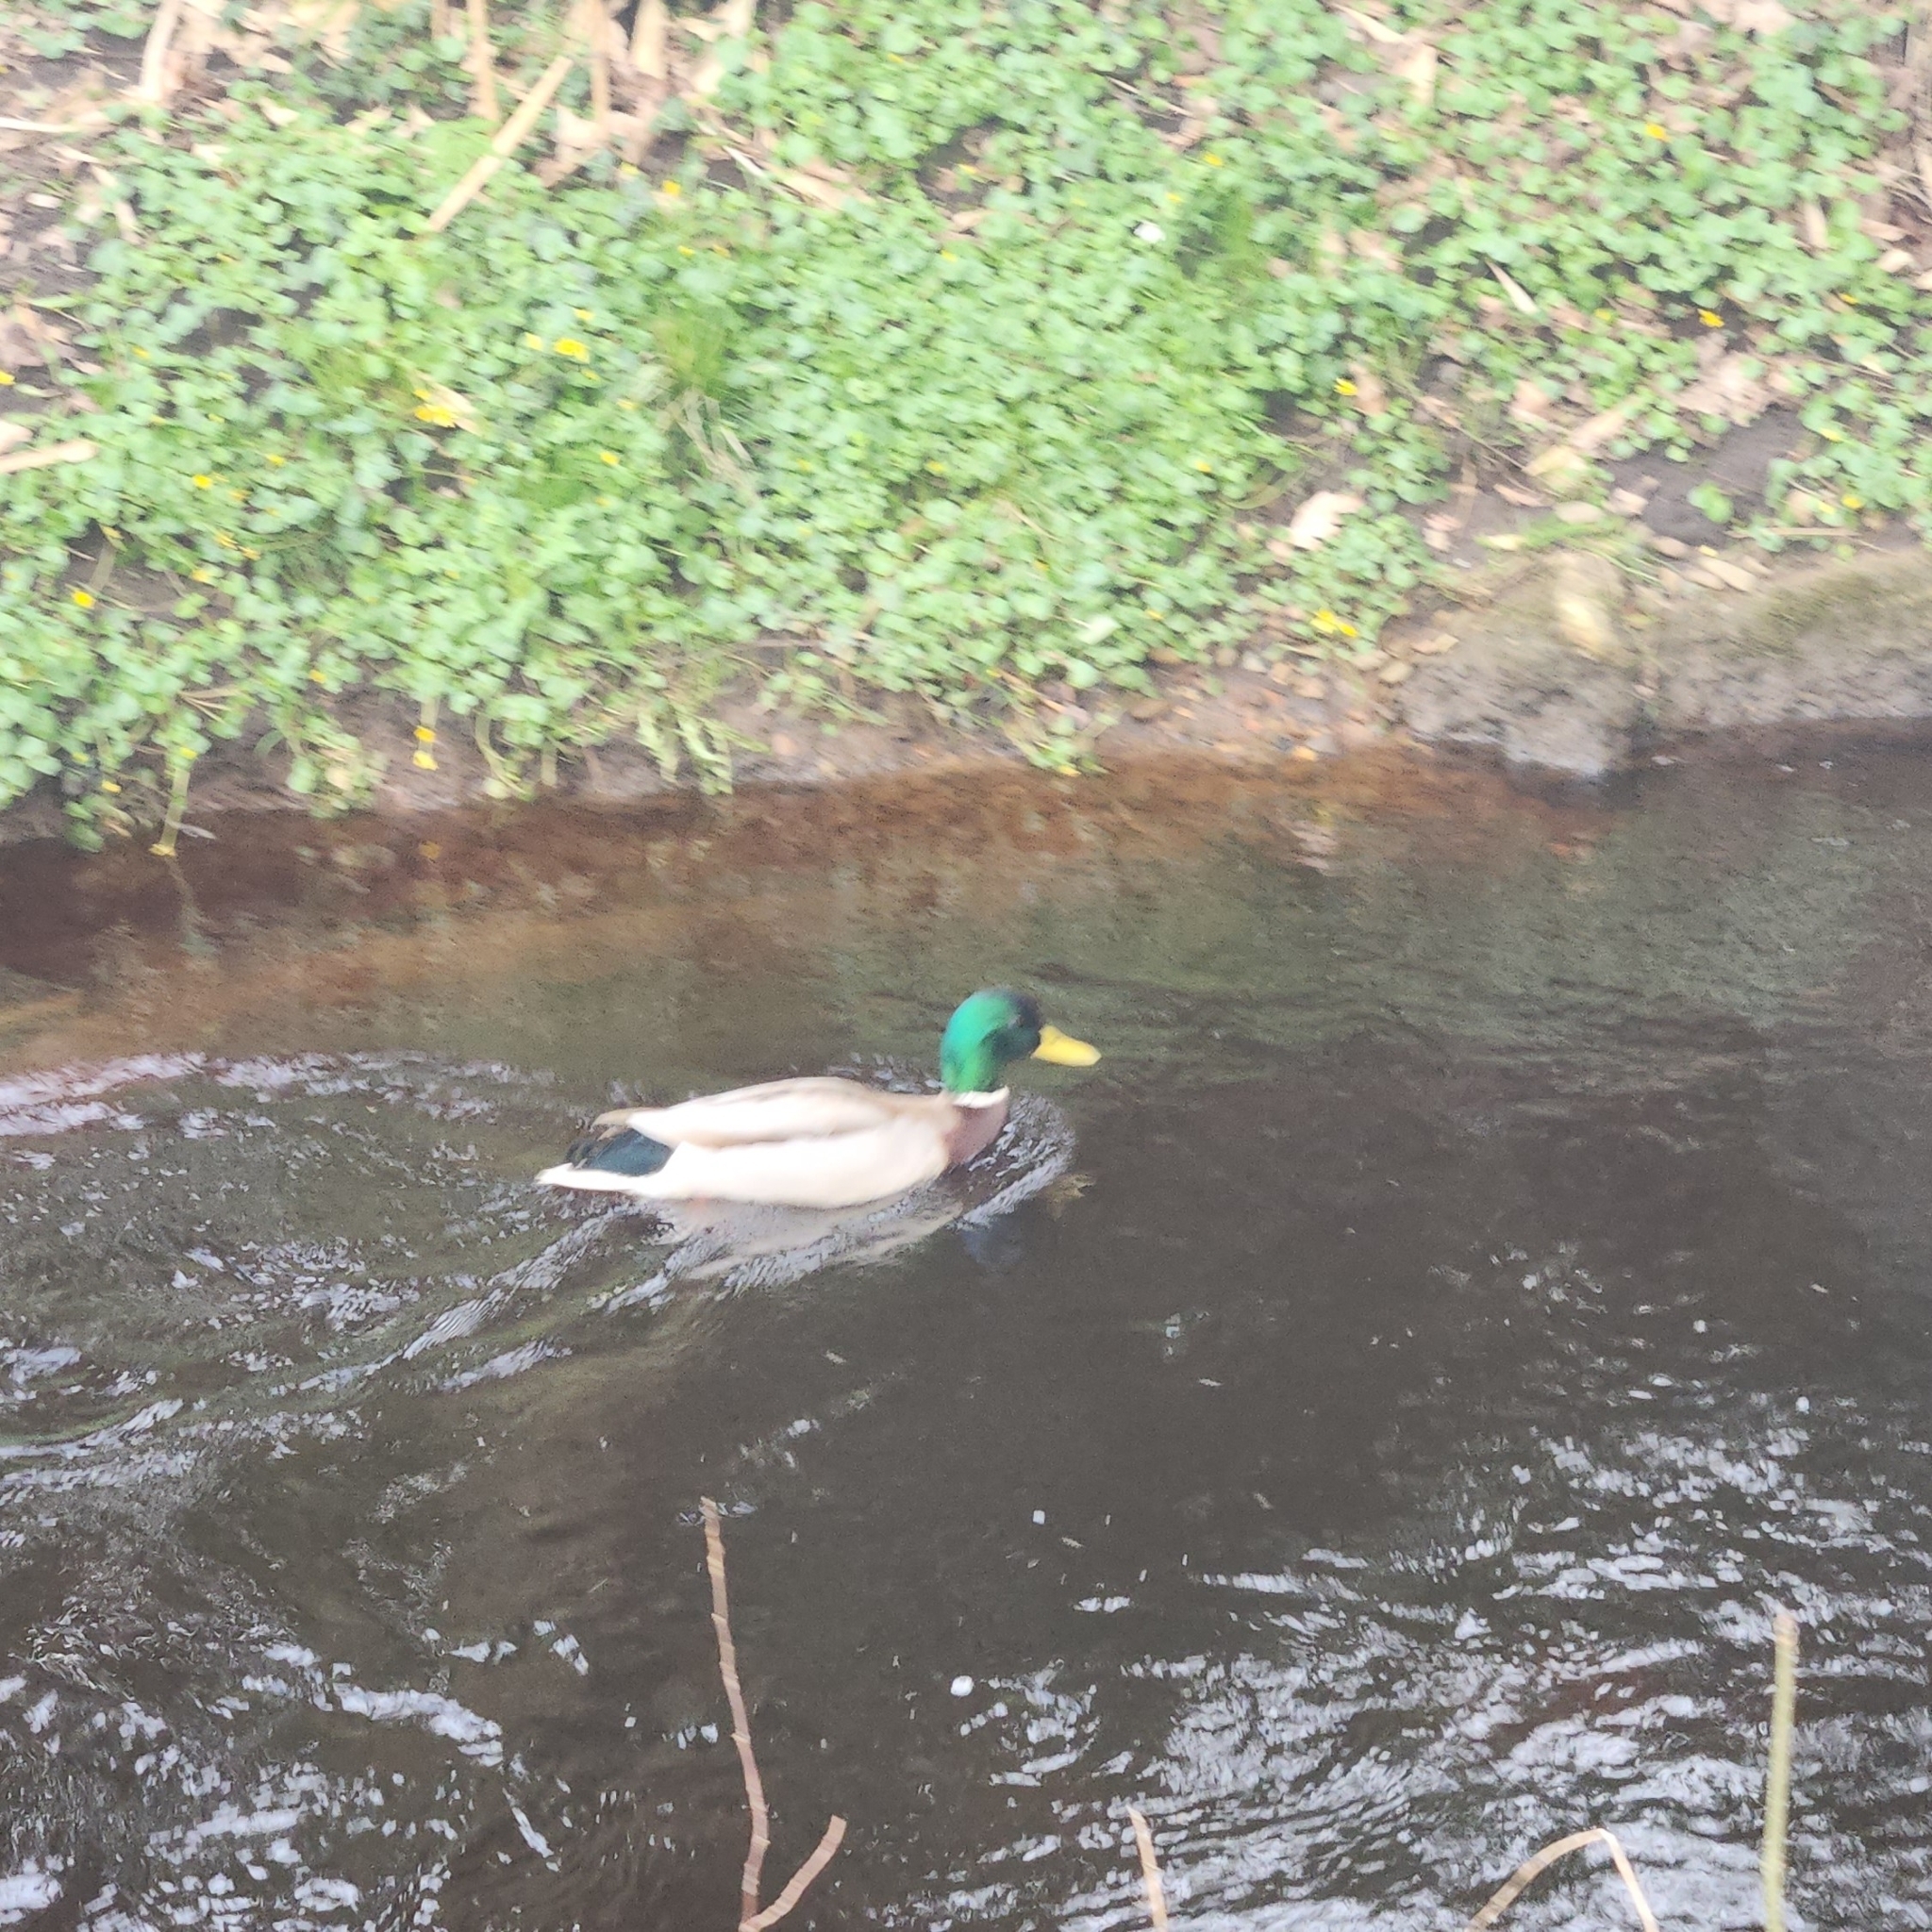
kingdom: Animalia
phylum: Chordata
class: Aves
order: Anseriformes
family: Anatidae
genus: Anas
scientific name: Anas platyrhynchos
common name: Mallard
